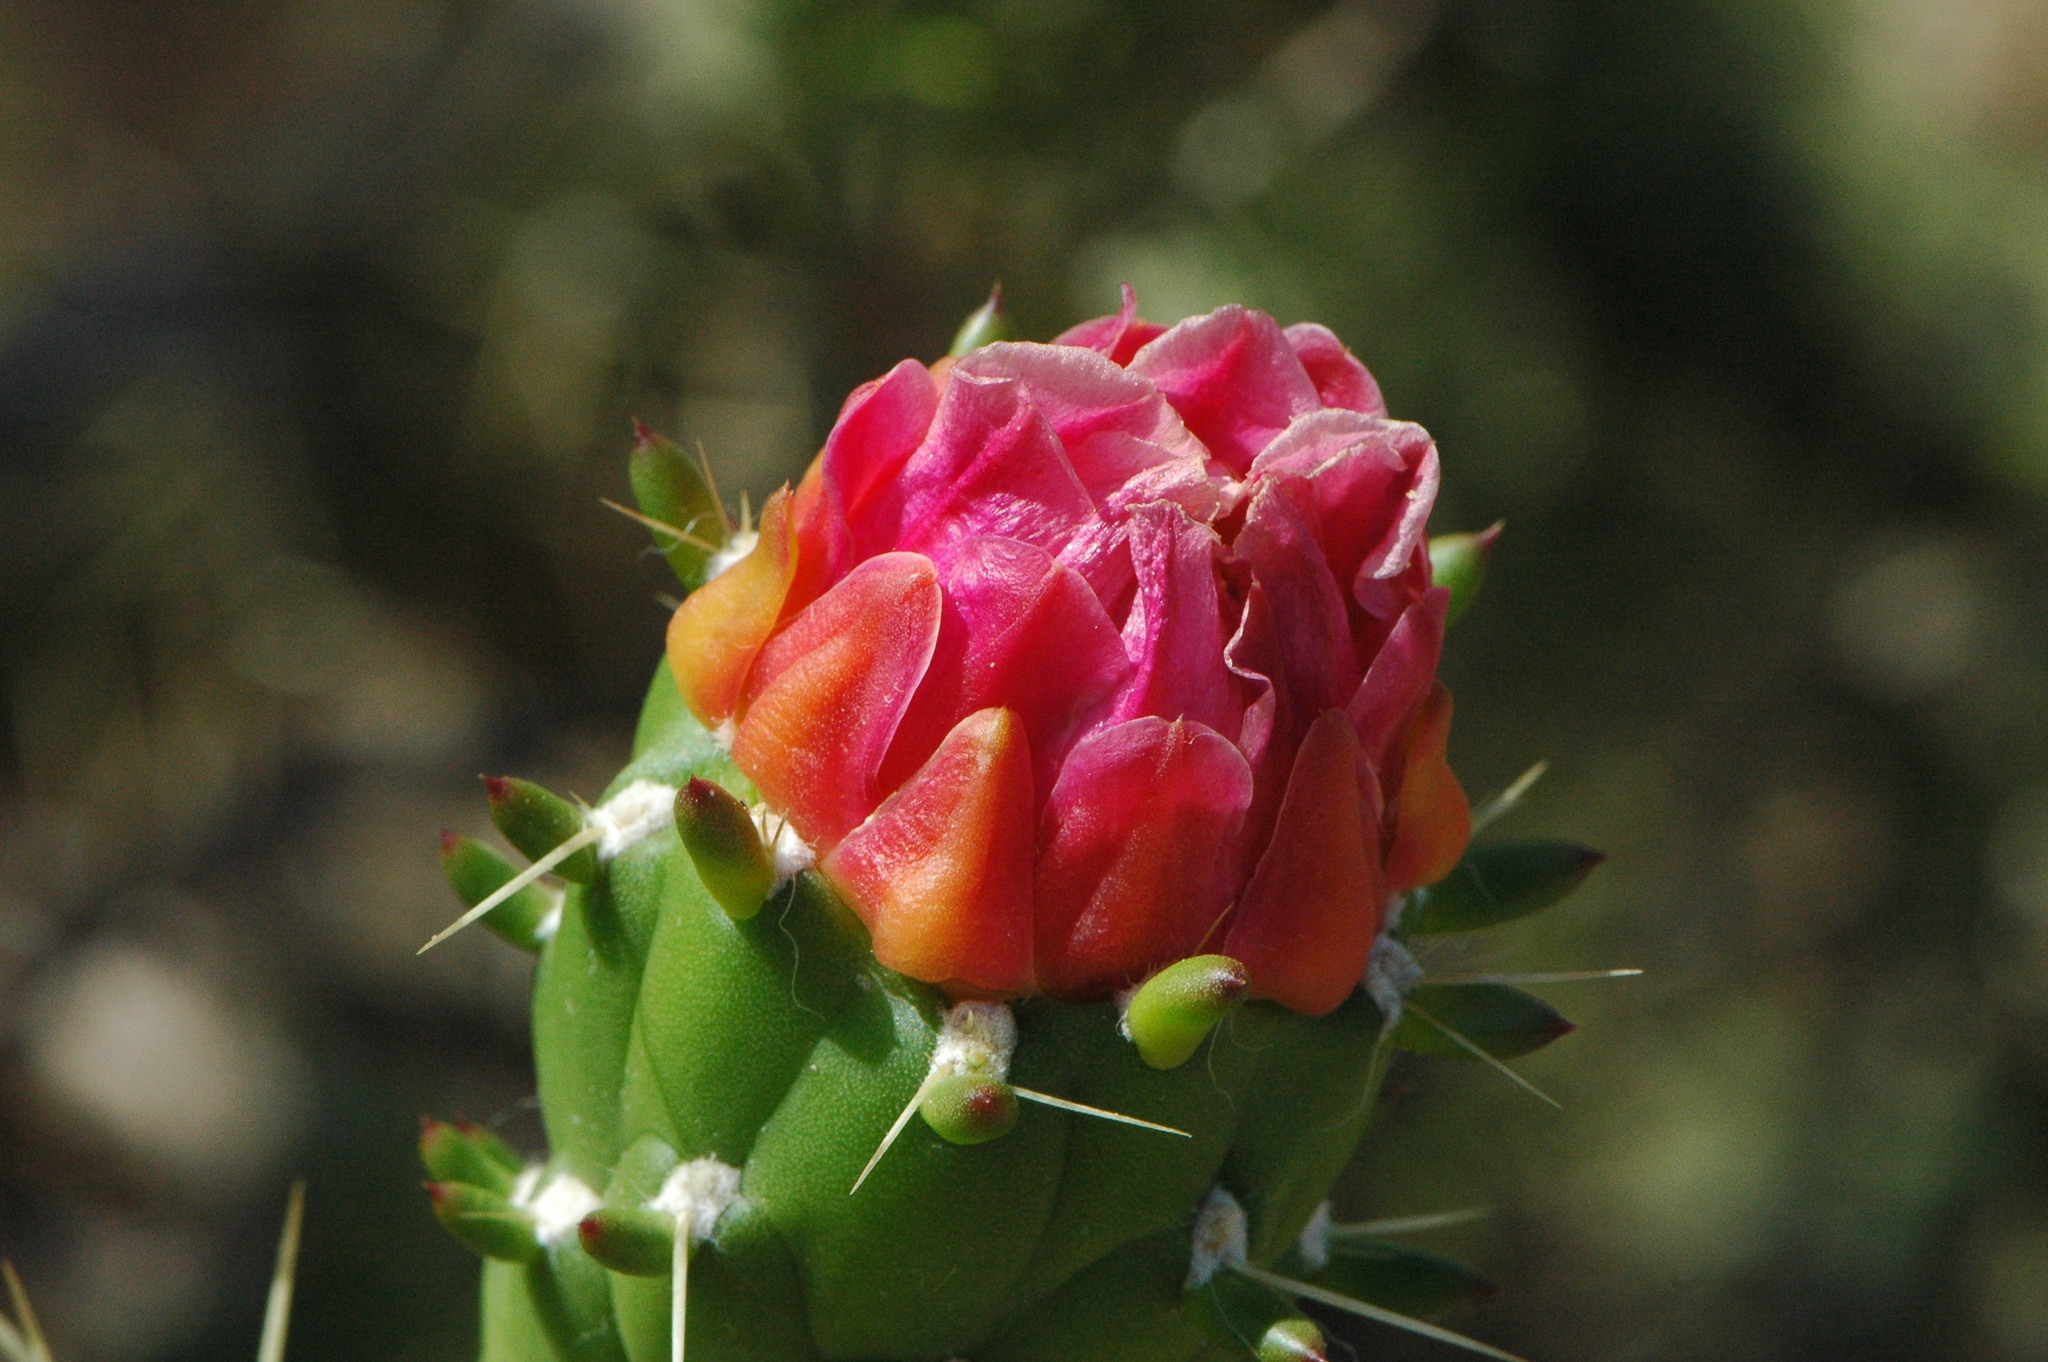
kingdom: Plantae
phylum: Tracheophyta
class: Magnoliopsida
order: Caryophyllales
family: Cactaceae
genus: Austrocylindropuntia
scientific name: Austrocylindropuntia subulata
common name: Eve's needle cactus
